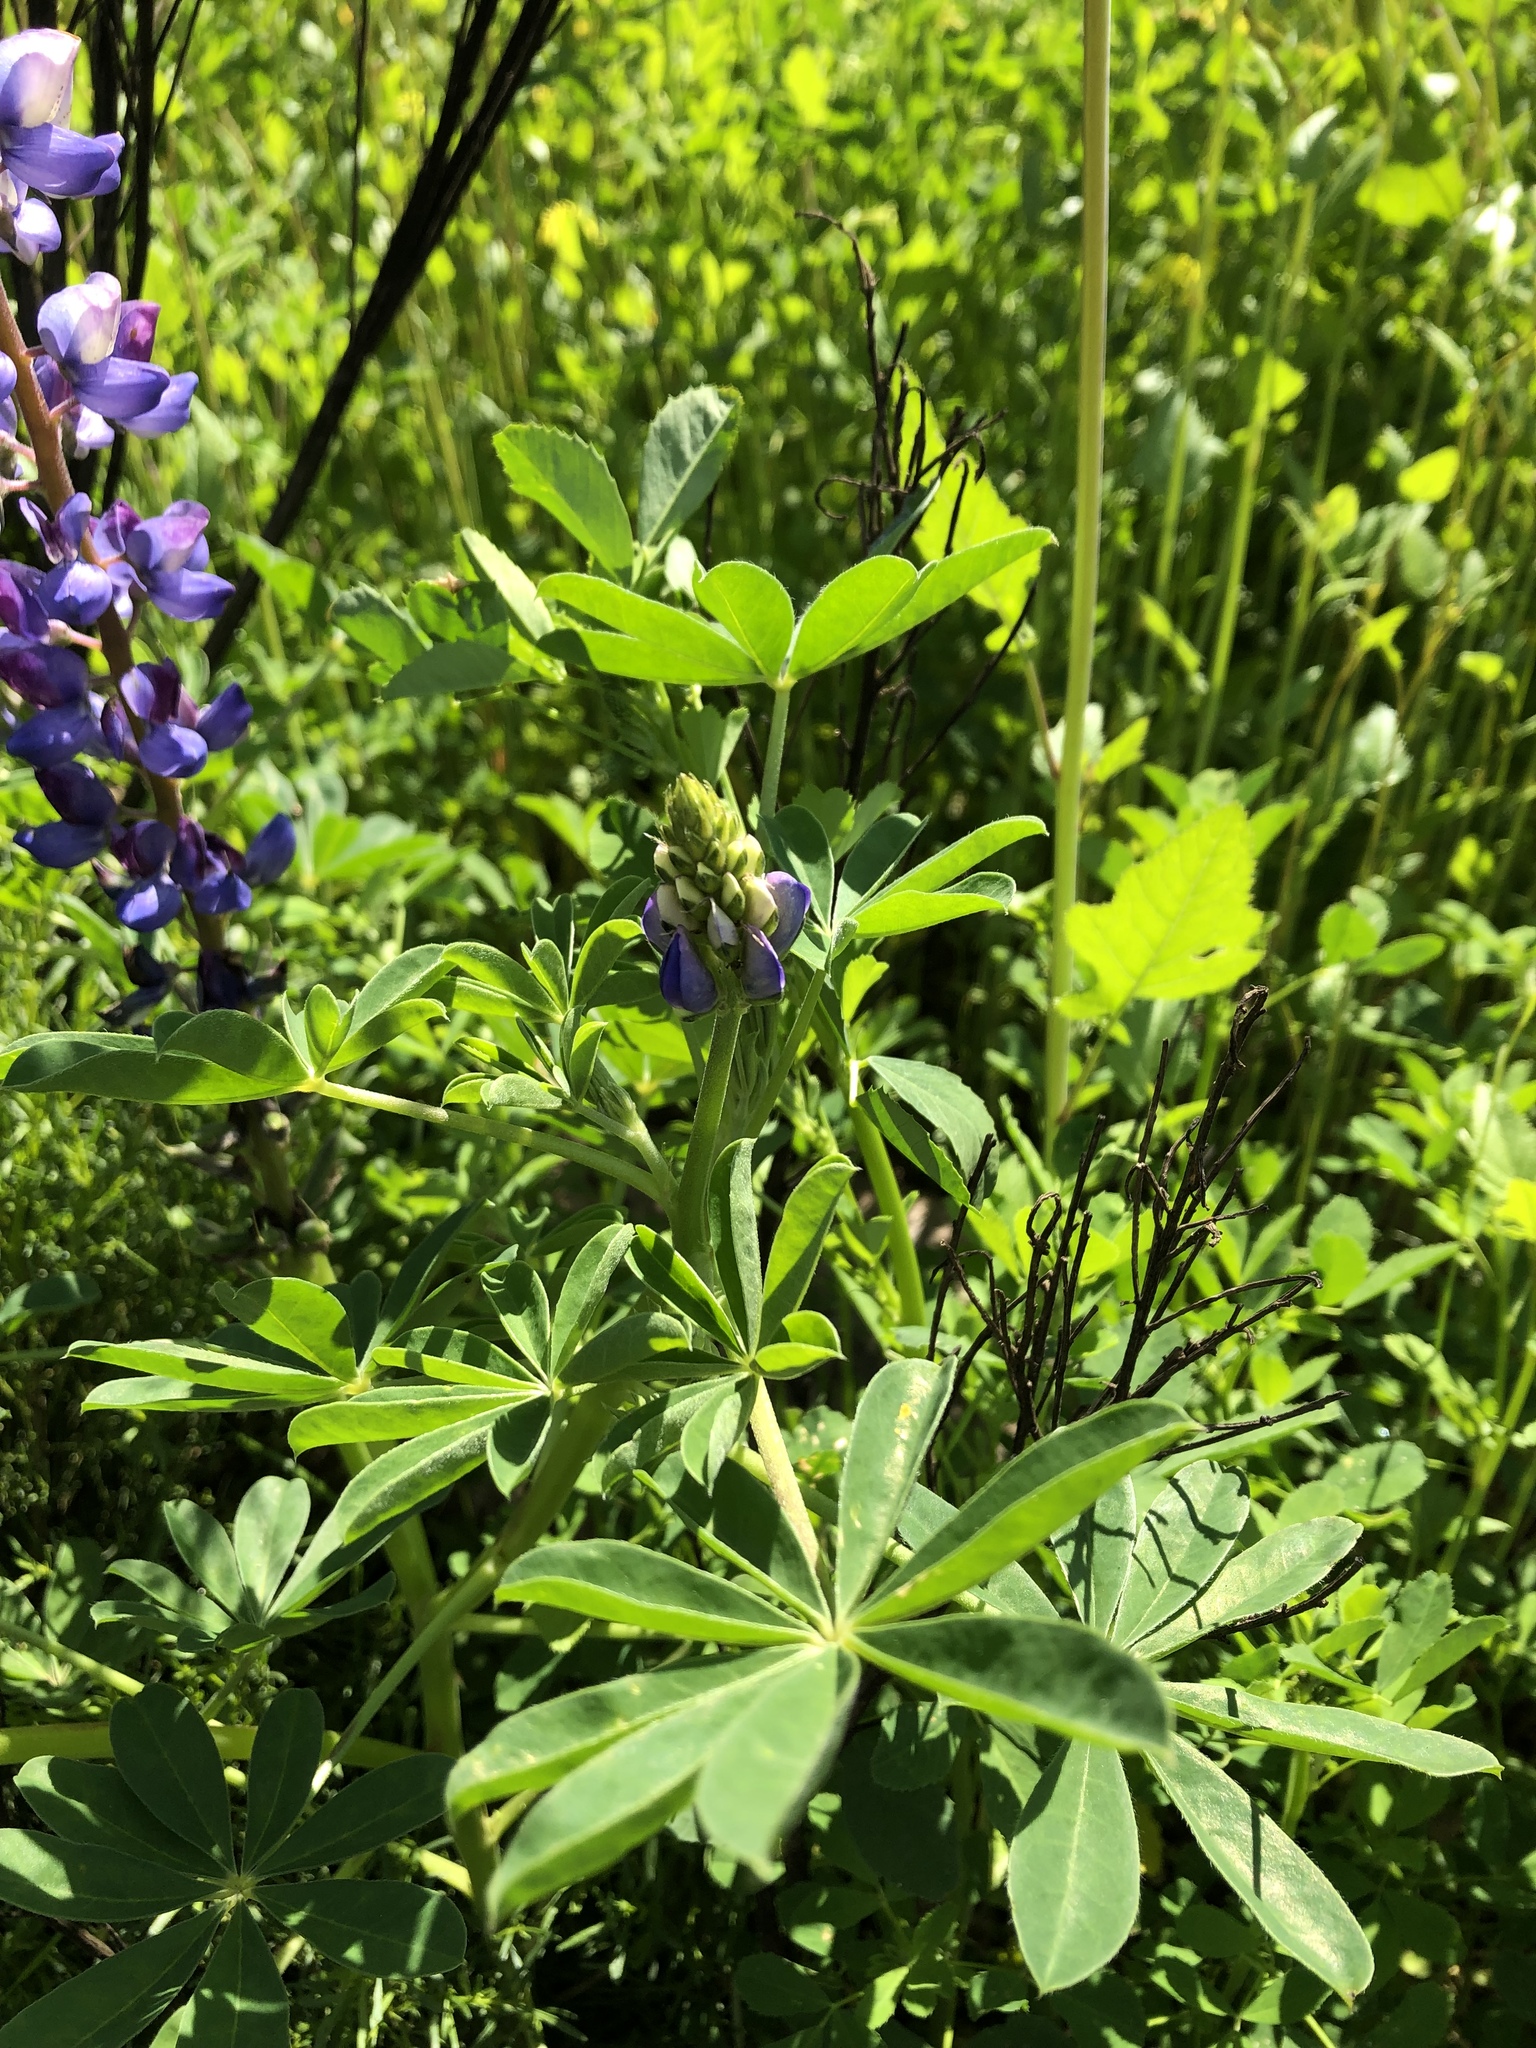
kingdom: Plantae
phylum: Tracheophyta
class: Magnoliopsida
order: Fabales
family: Fabaceae
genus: Lupinus
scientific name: Lupinus succulentus
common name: Arroyo lupine
